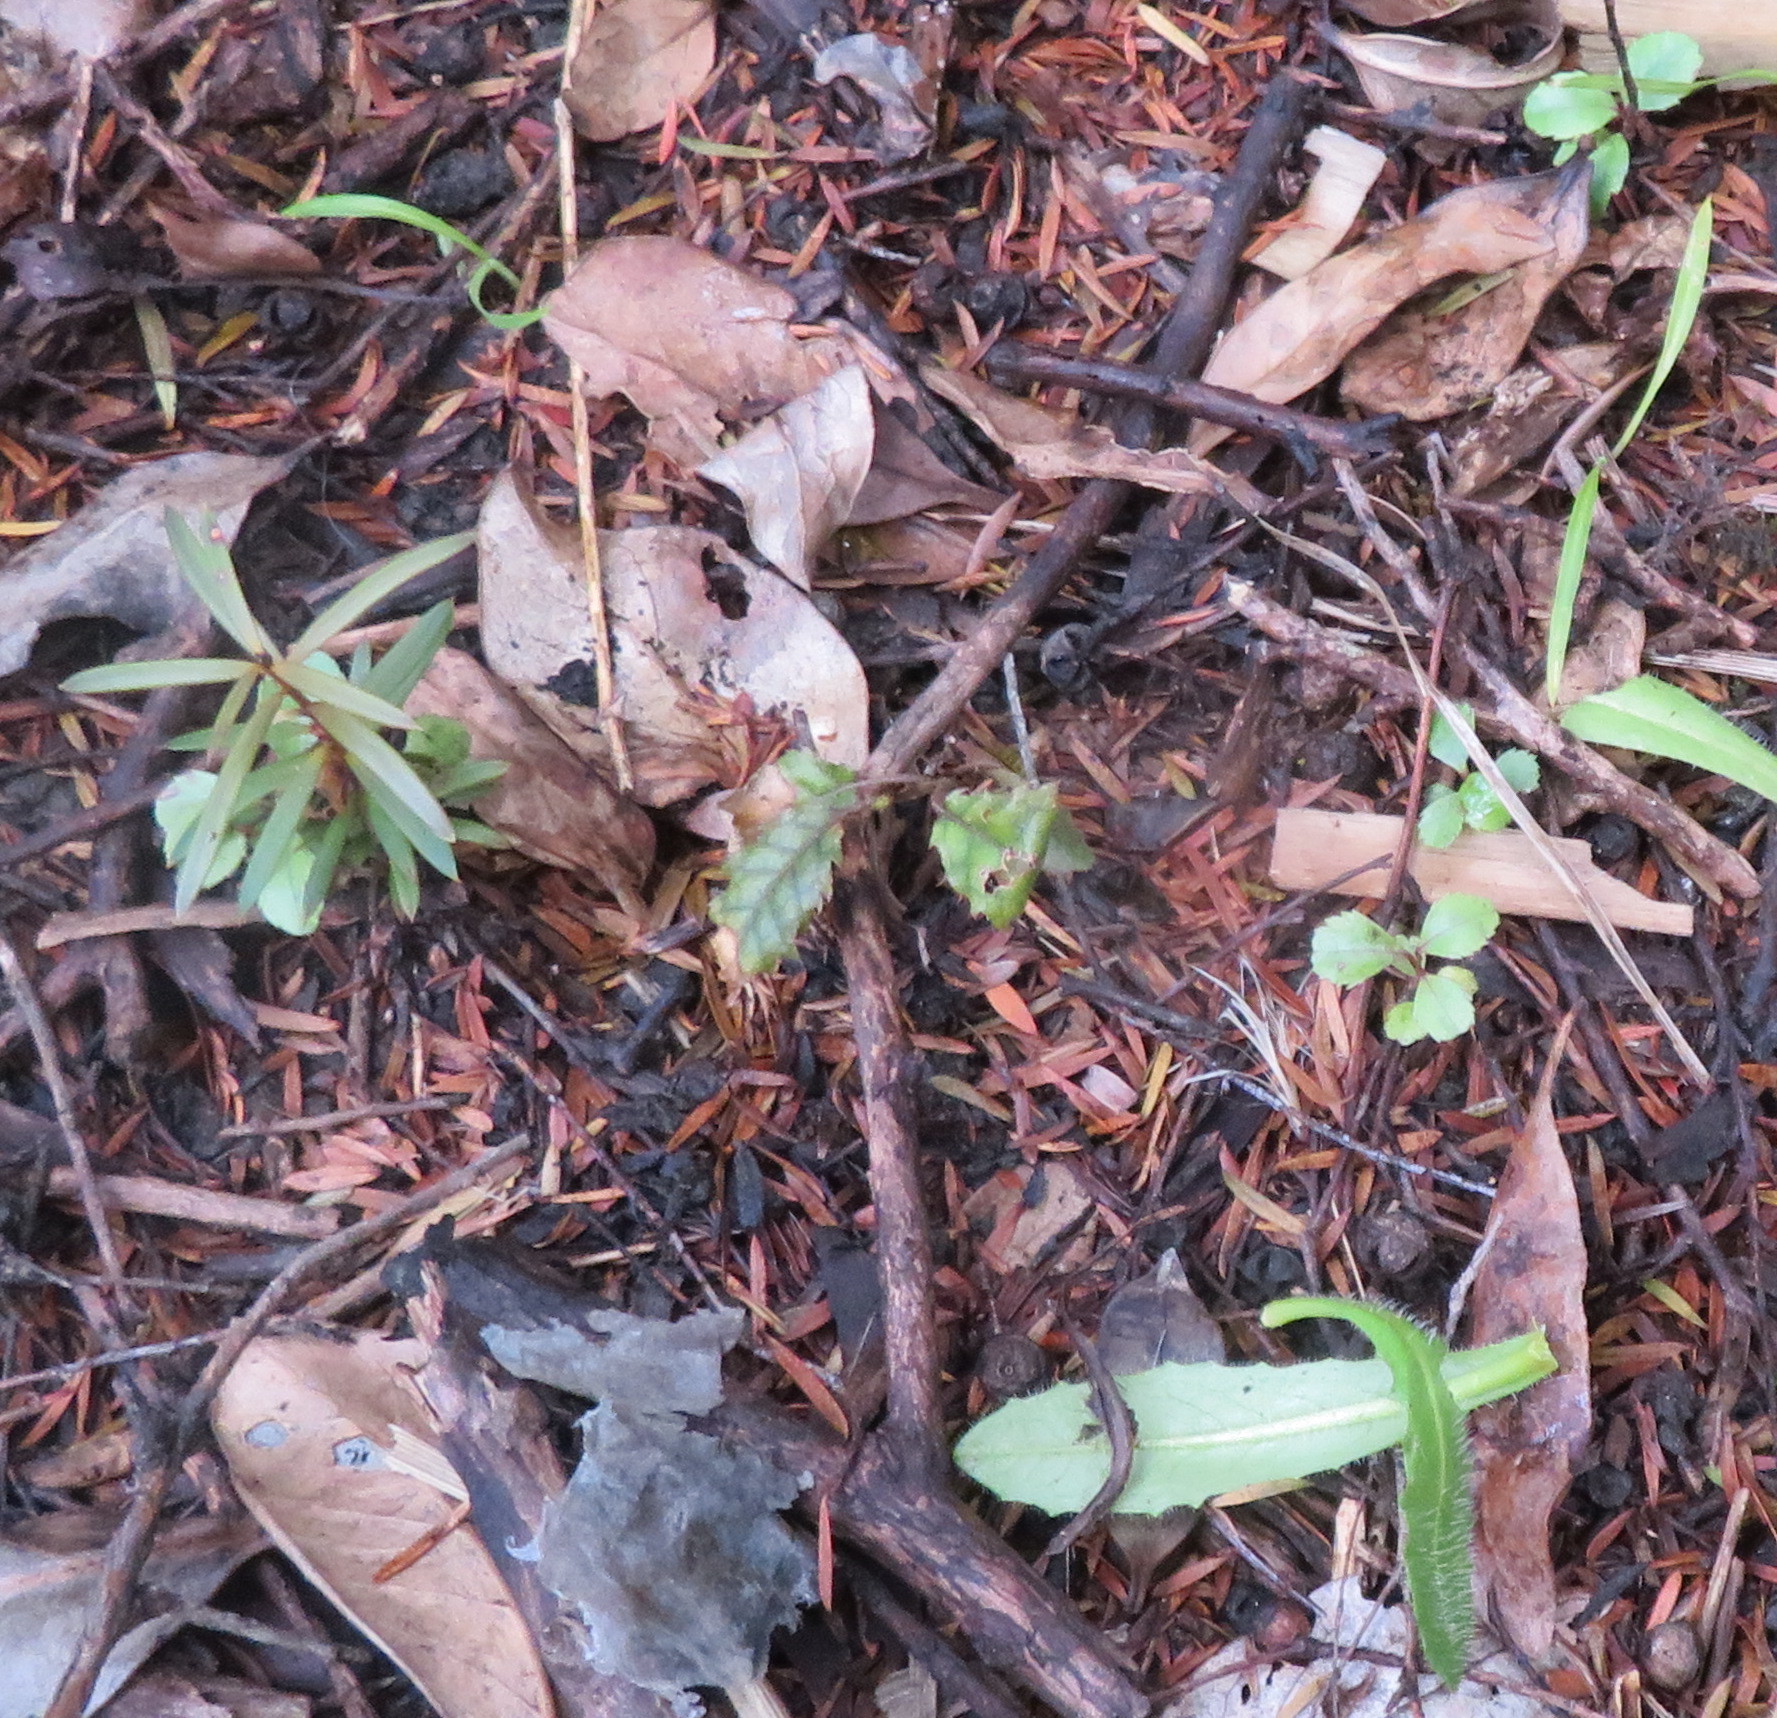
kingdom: Plantae
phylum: Tracheophyta
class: Magnoliopsida
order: Asterales
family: Rousseaceae
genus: Carpodetus
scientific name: Carpodetus serratus
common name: White mapau
